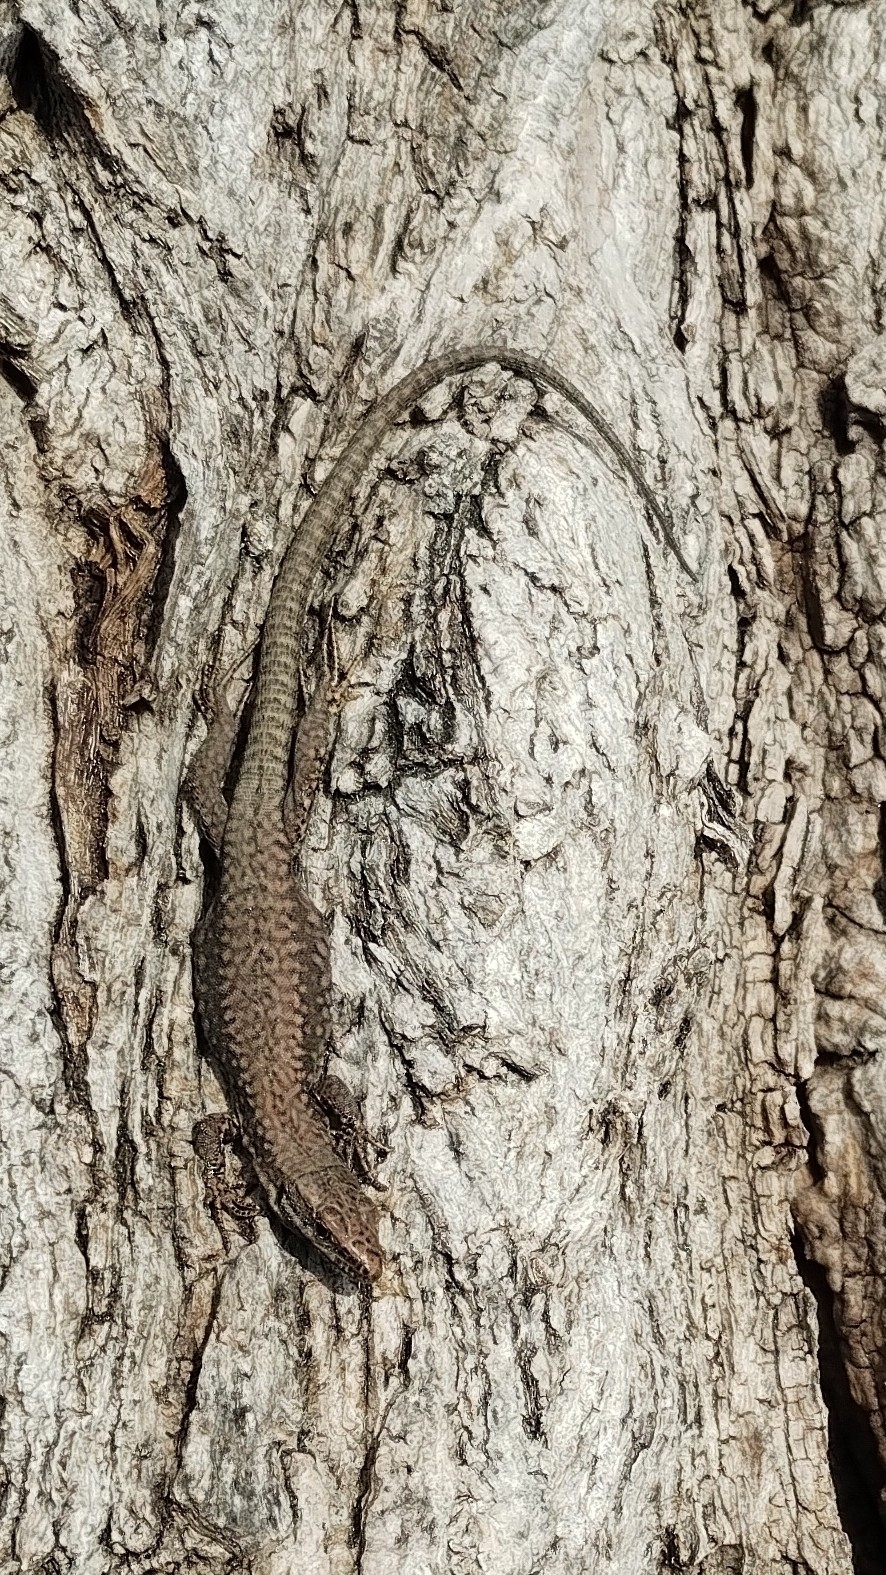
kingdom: Animalia
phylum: Chordata
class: Squamata
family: Lacertidae
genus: Podarcis
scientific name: Podarcis muralis
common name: Common wall lizard
